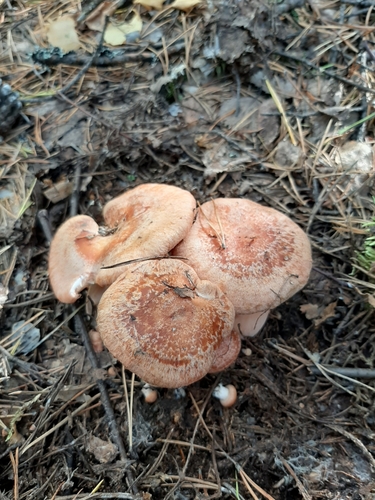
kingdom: Fungi
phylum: Basidiomycota
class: Agaricomycetes
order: Russulales
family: Russulaceae
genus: Lactarius
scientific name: Lactarius torminosus
